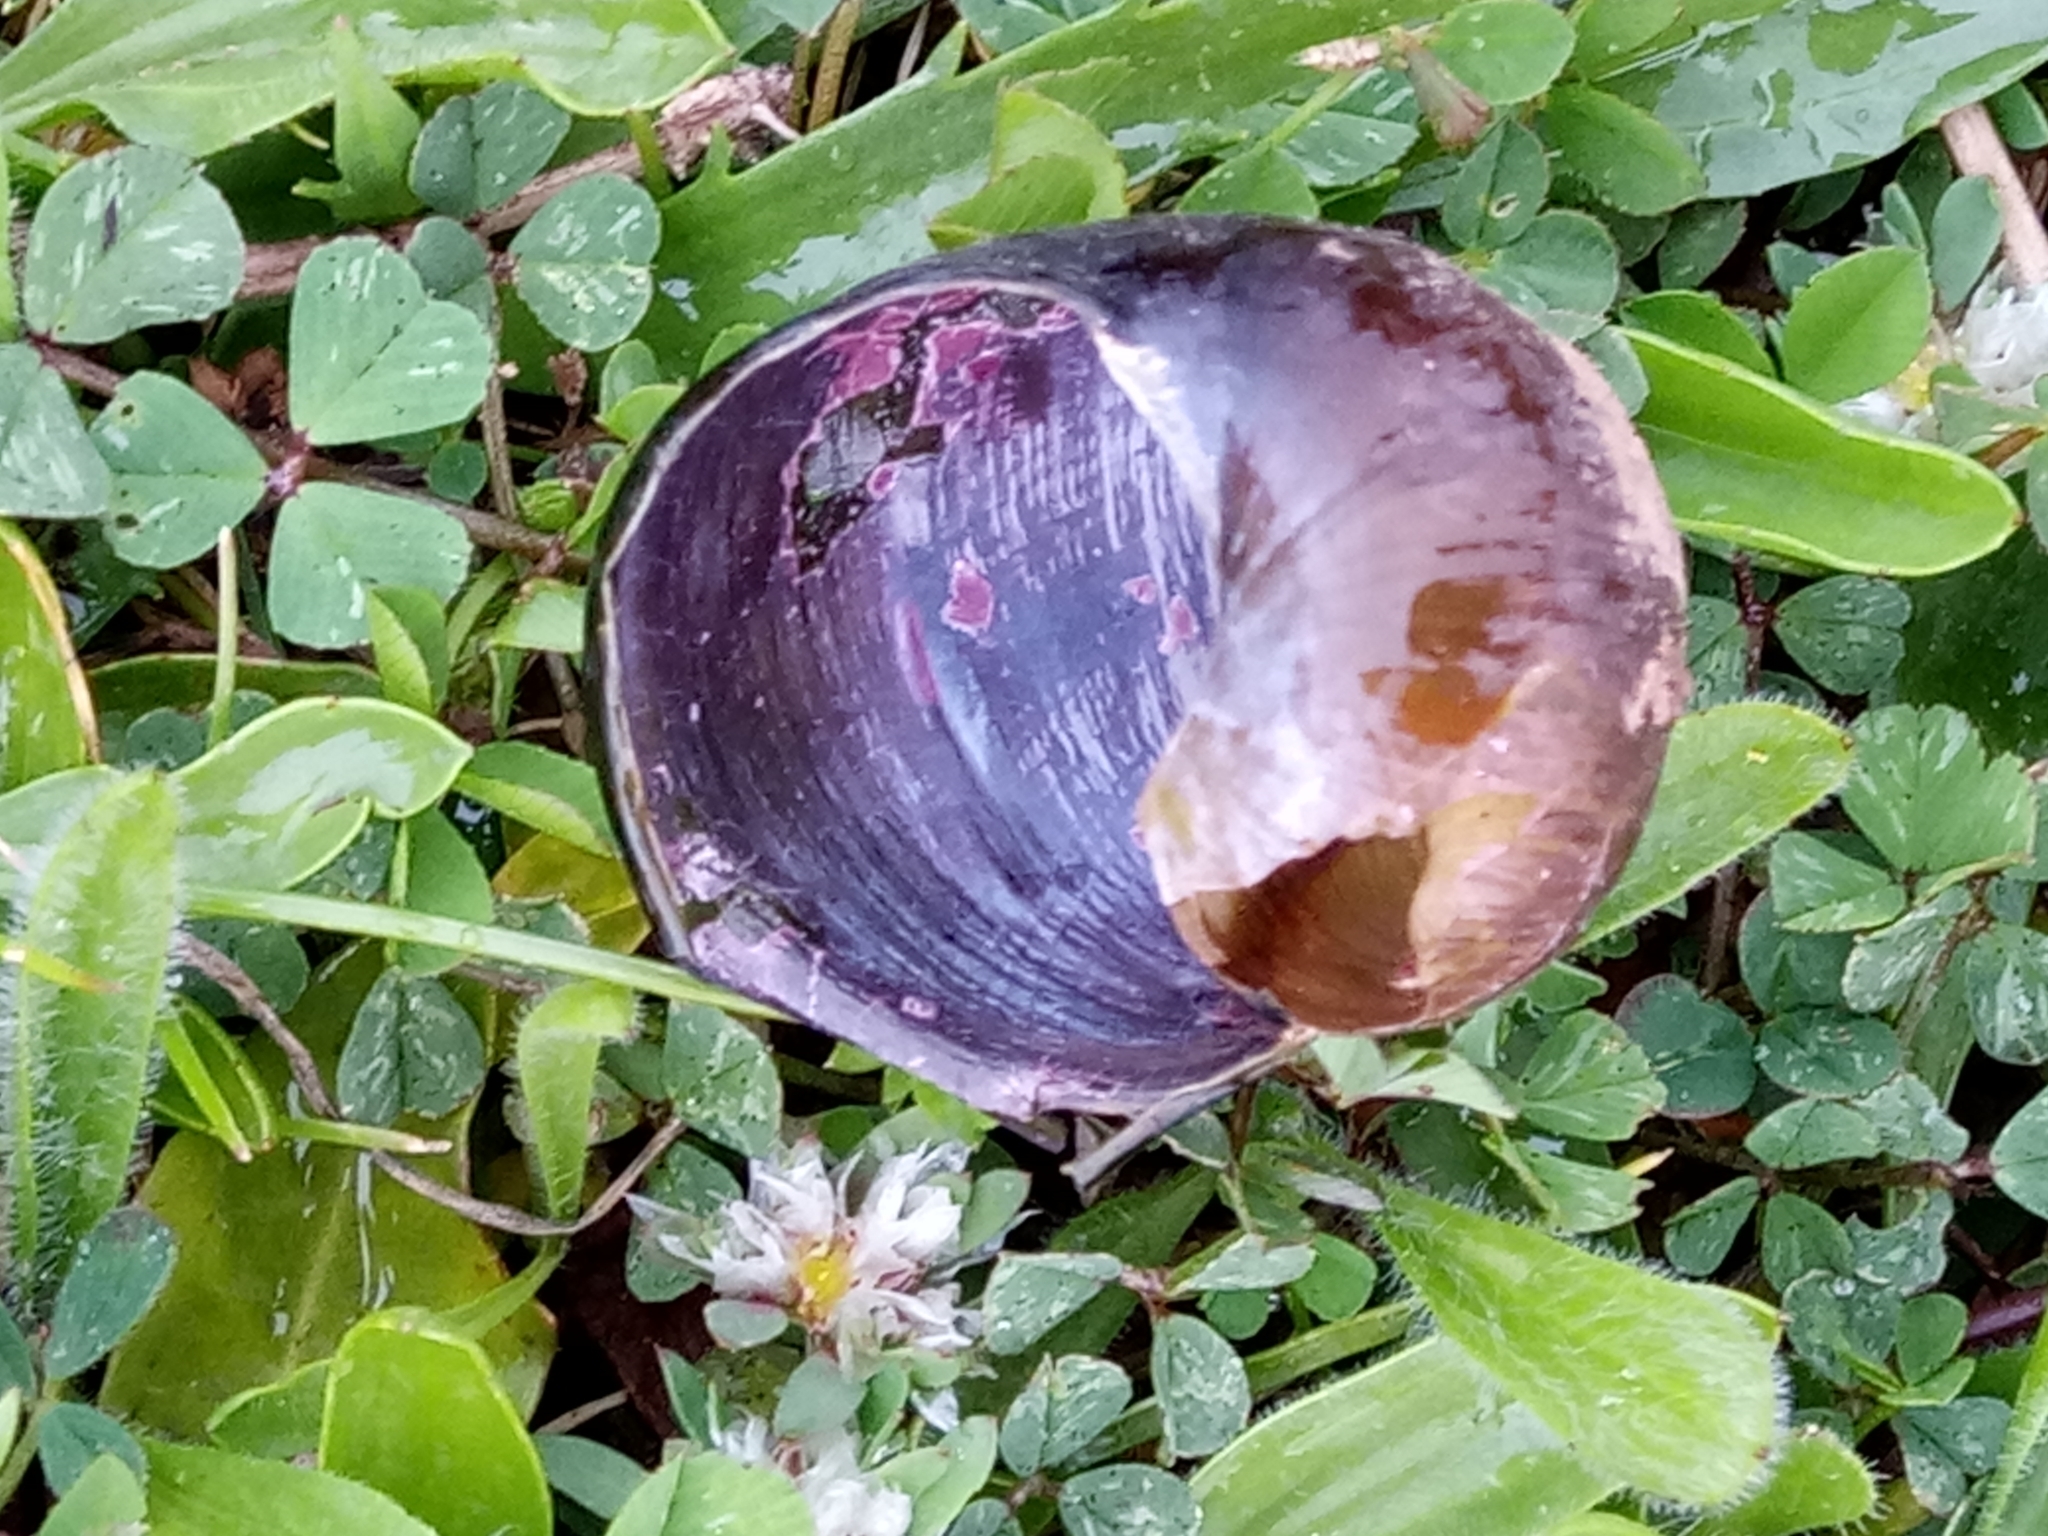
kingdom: Animalia
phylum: Mollusca
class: Gastropoda
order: Stylommatophora
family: Helicidae
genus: Cantareus
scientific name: Cantareus apertus
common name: Green gardensnail
